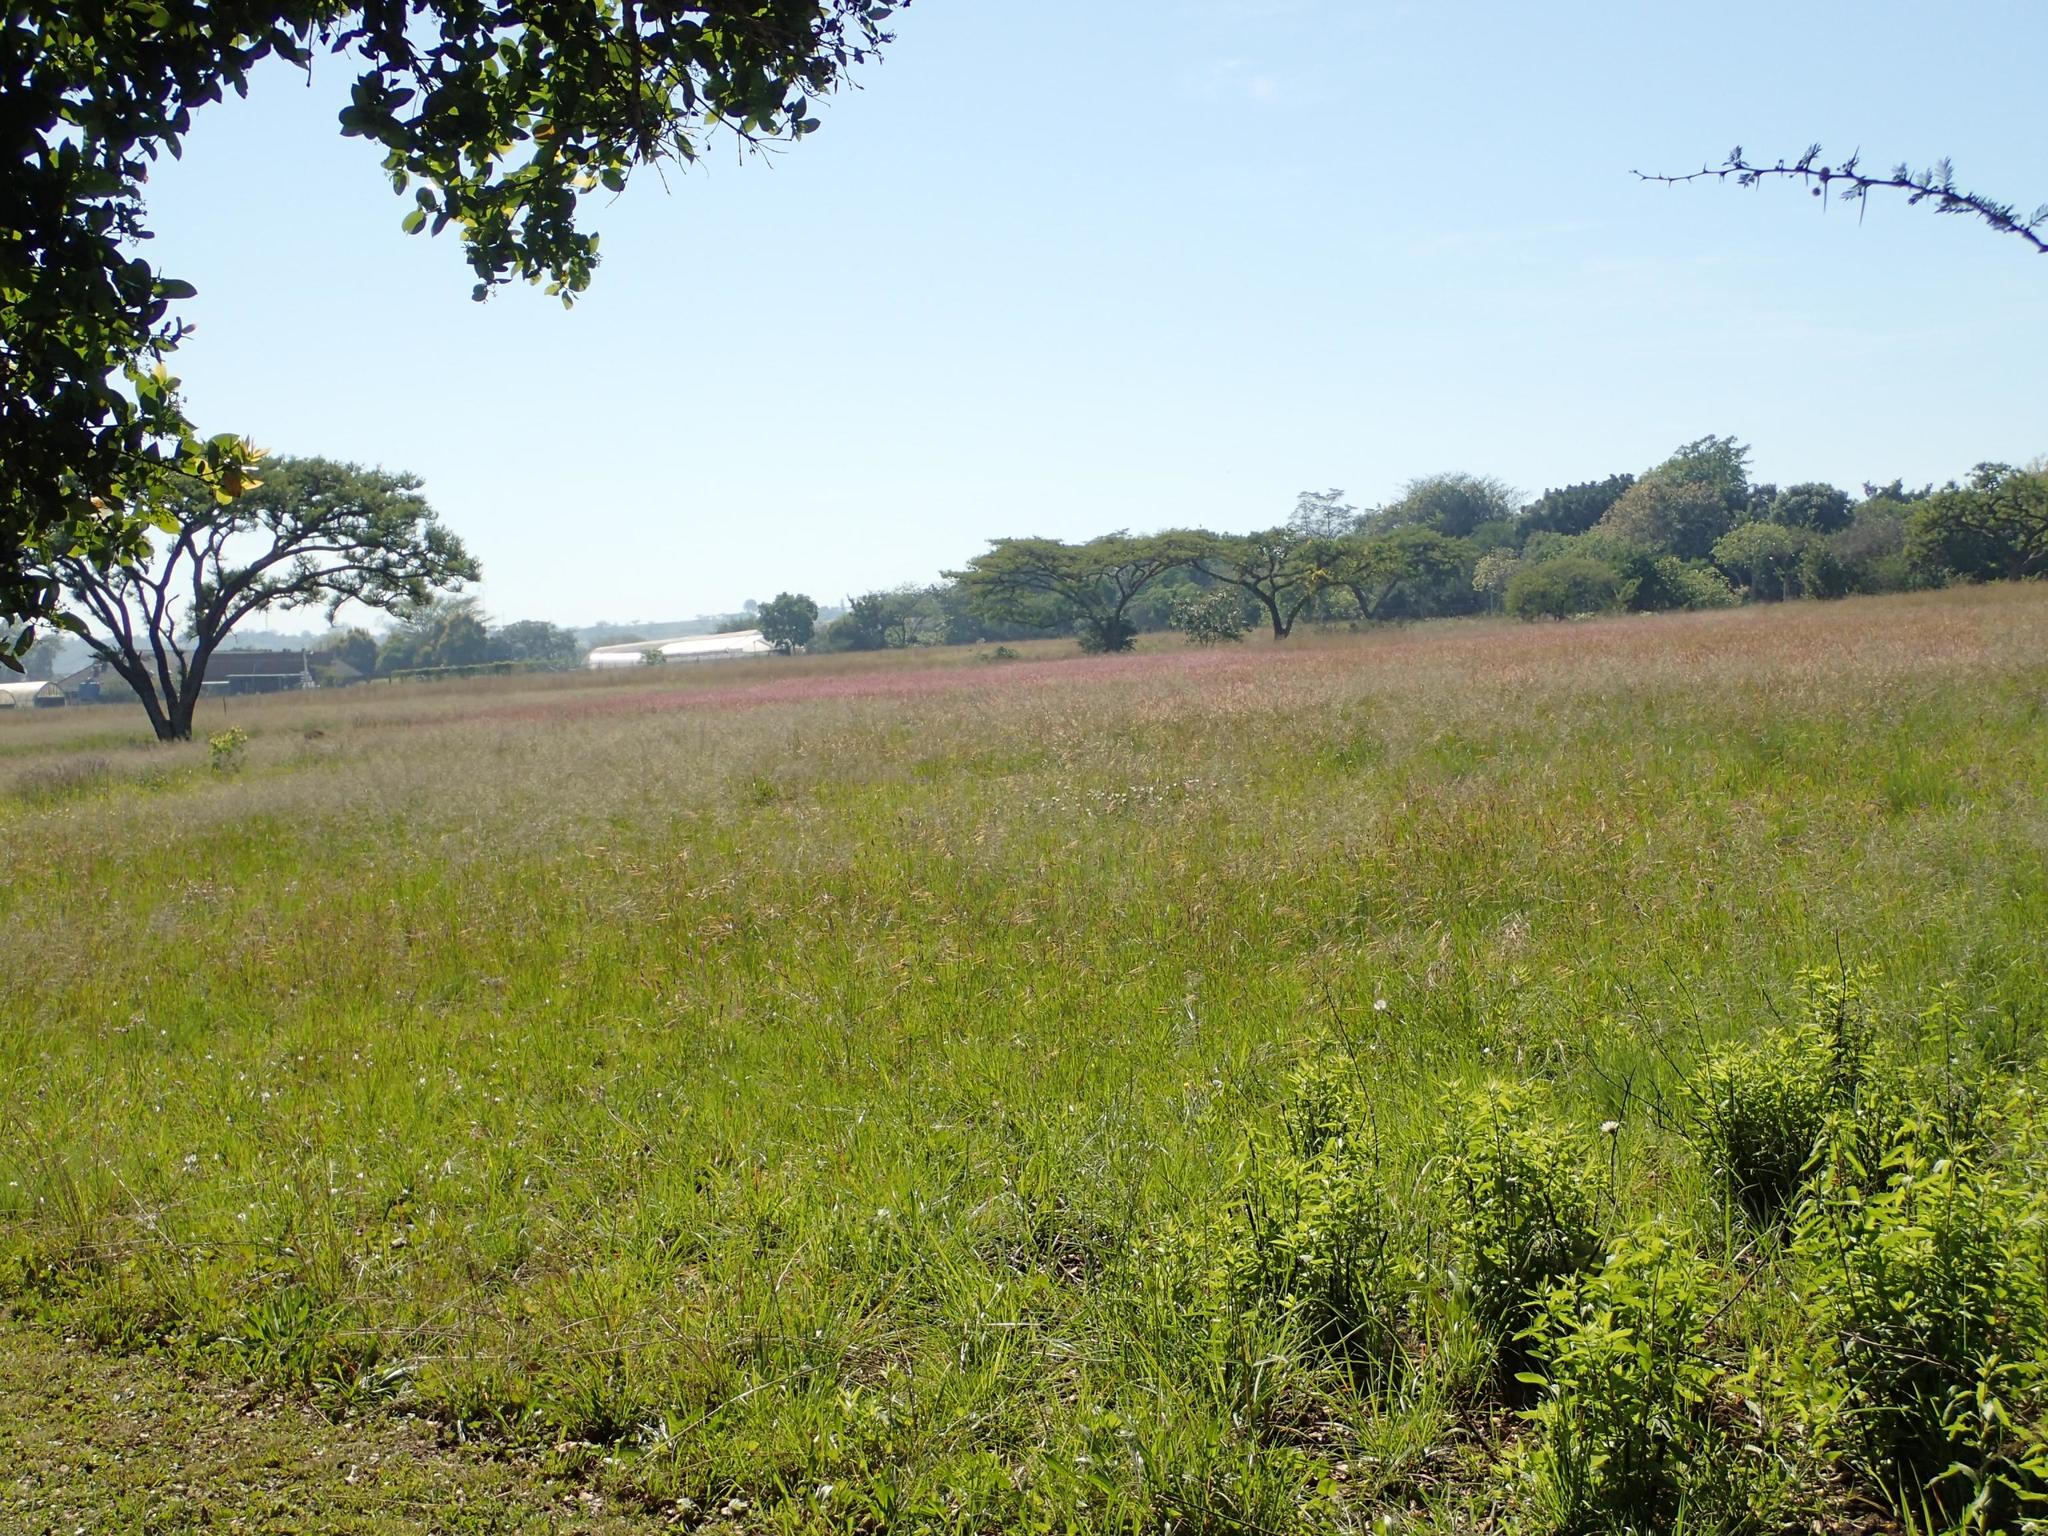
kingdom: Plantae
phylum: Tracheophyta
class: Liliopsida
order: Poales
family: Poaceae
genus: Melinis
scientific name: Melinis nerviglumis
